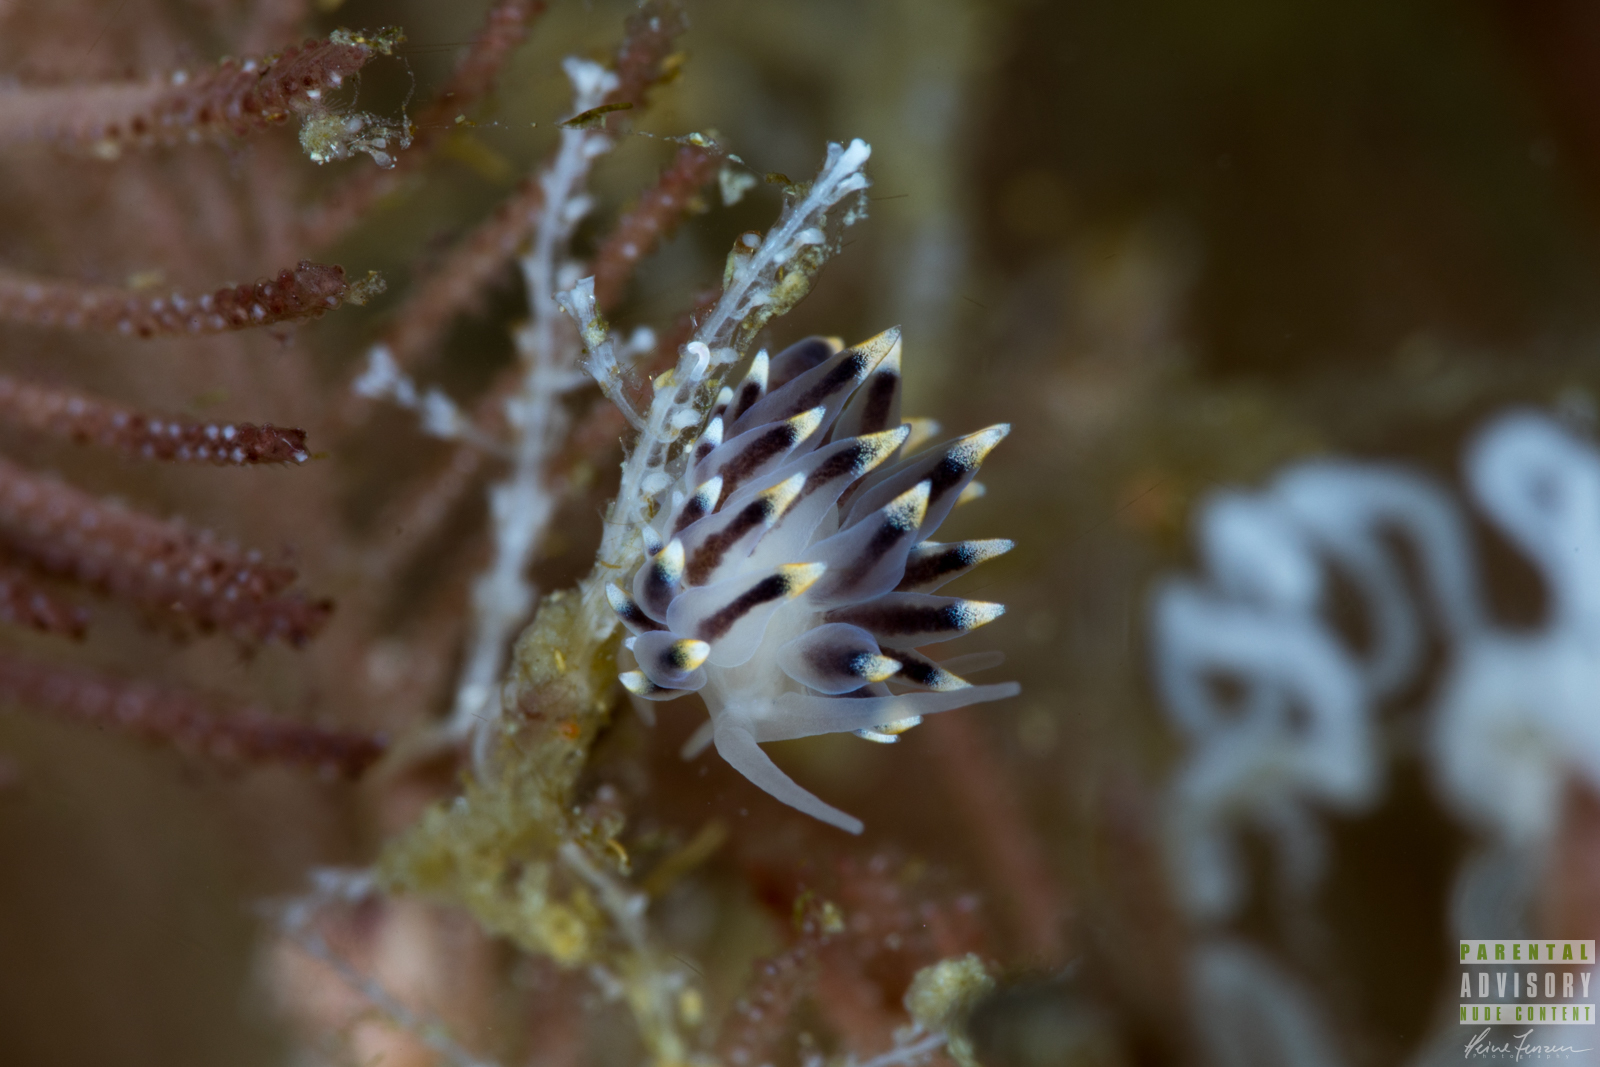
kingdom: Animalia
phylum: Mollusca
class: Gastropoda
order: Nudibranchia
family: Eubranchidae
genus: Eubranchus
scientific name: Eubranchus tricolor
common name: Painted balloon aeolis
